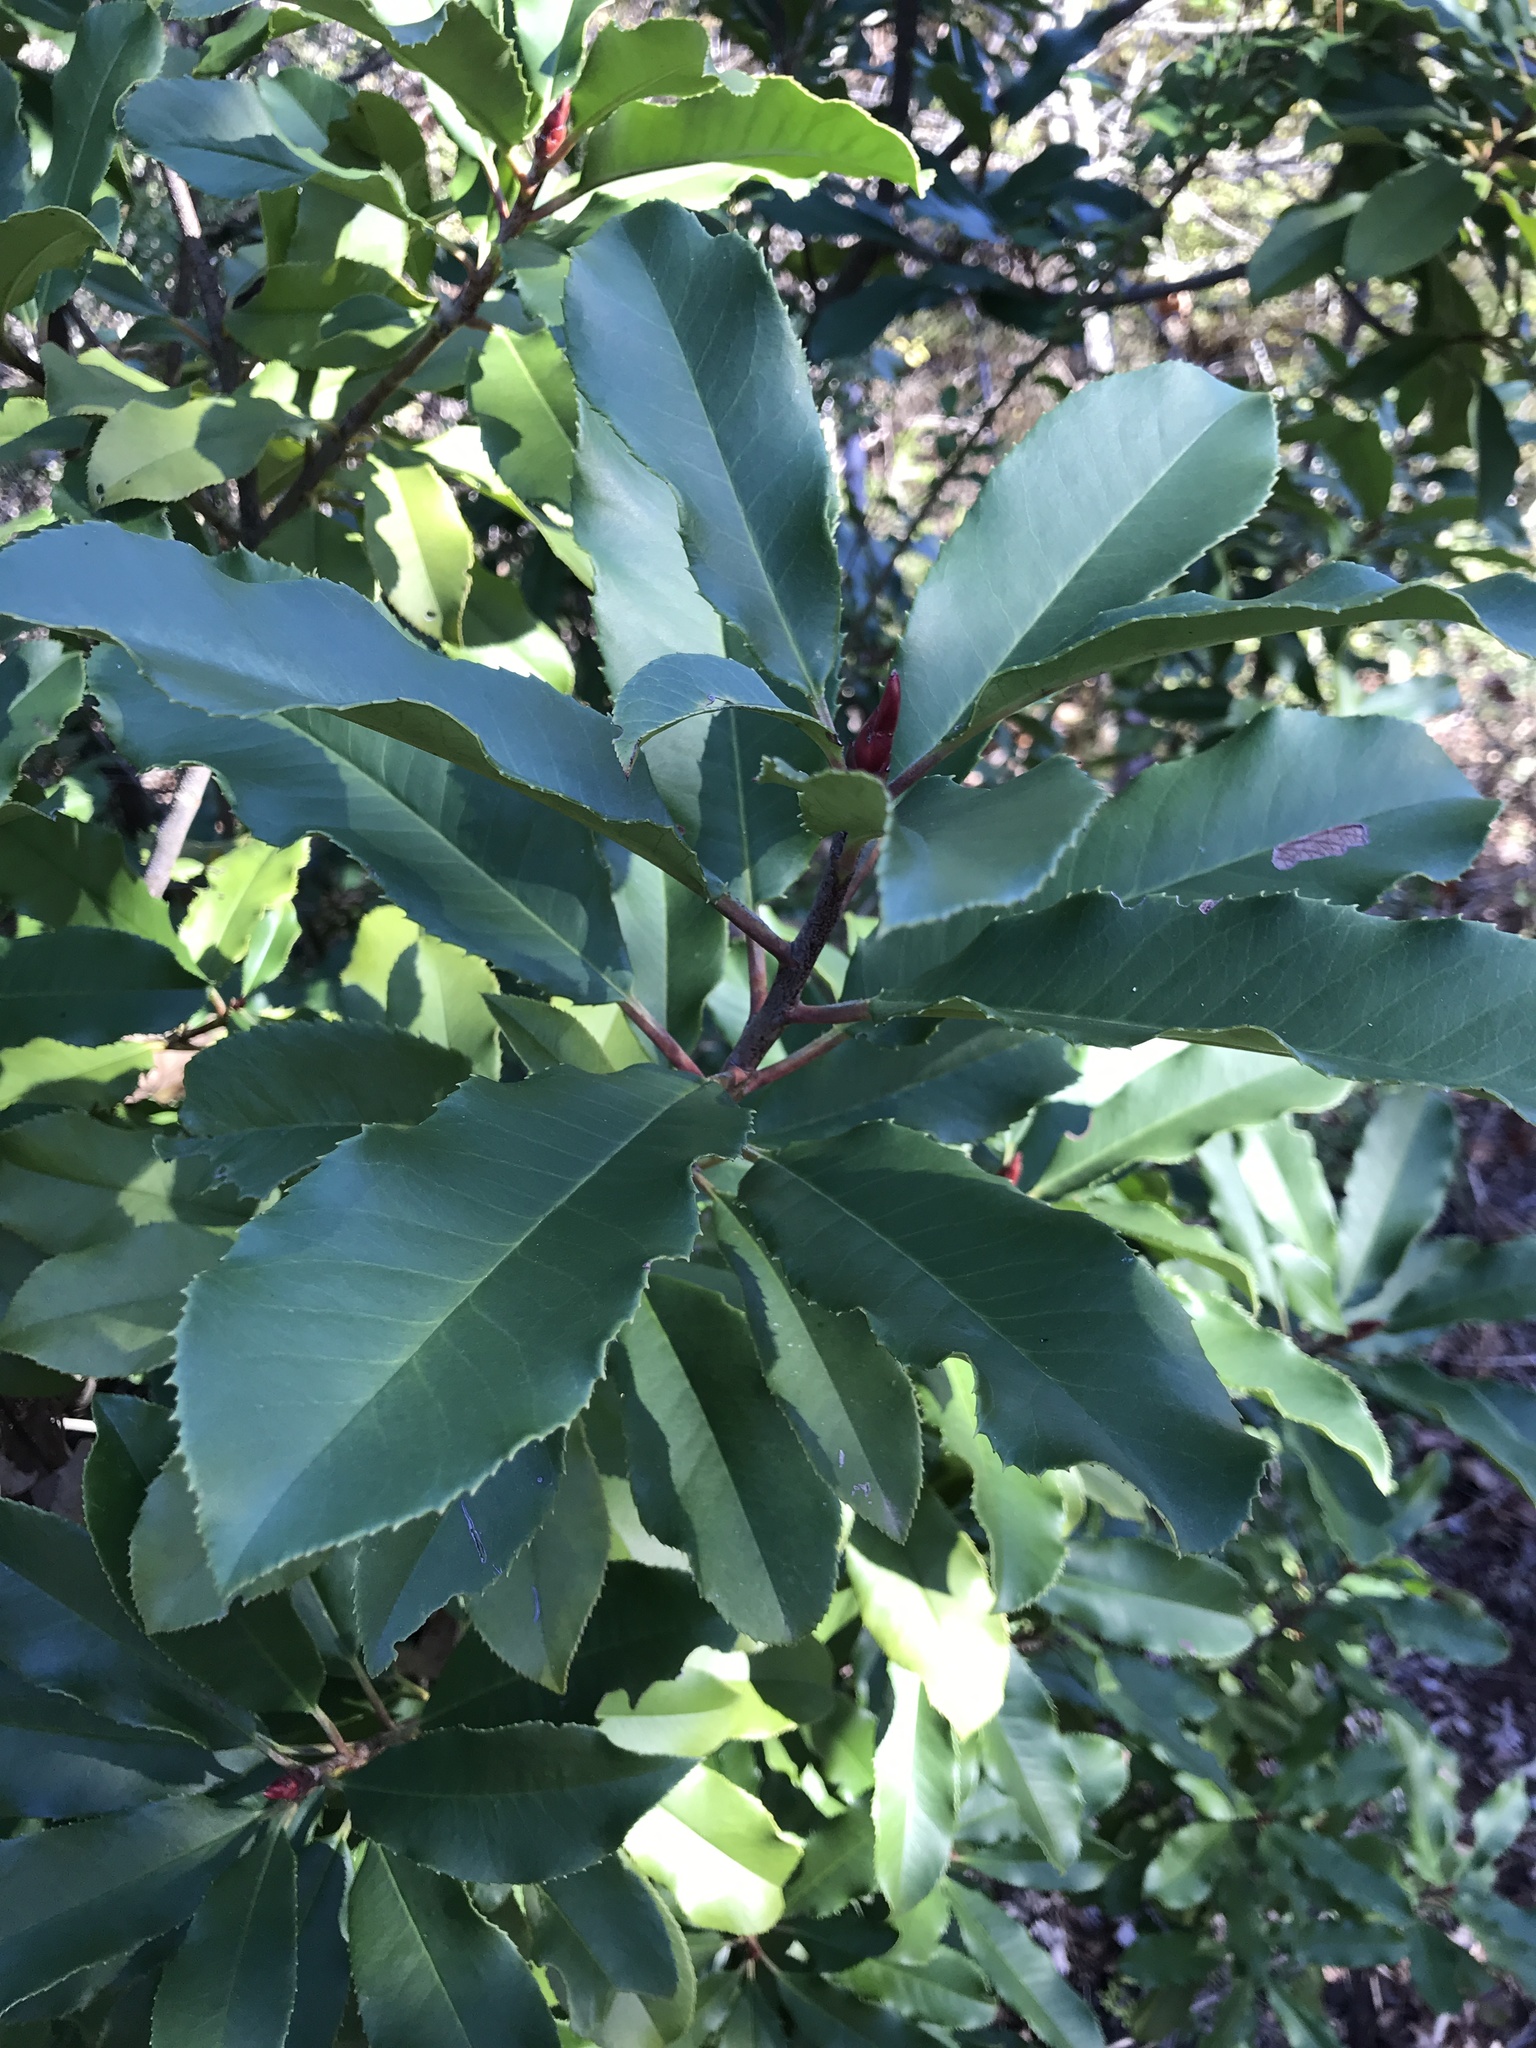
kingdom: Plantae
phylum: Tracheophyta
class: Magnoliopsida
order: Rosales
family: Rosaceae
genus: Photinia
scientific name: Photinia serratifolia
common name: Taiwanese photinia
